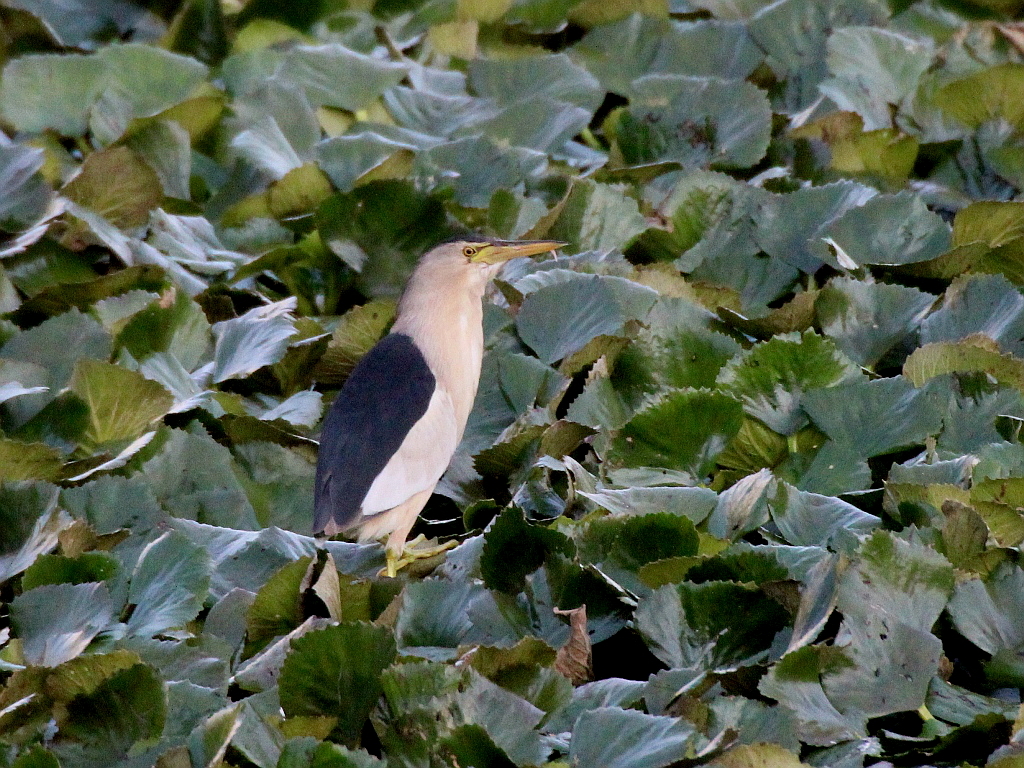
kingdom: Animalia
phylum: Chordata
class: Aves
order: Pelecaniformes
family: Ardeidae
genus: Ixobrychus
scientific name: Ixobrychus minutus
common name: Little bittern
